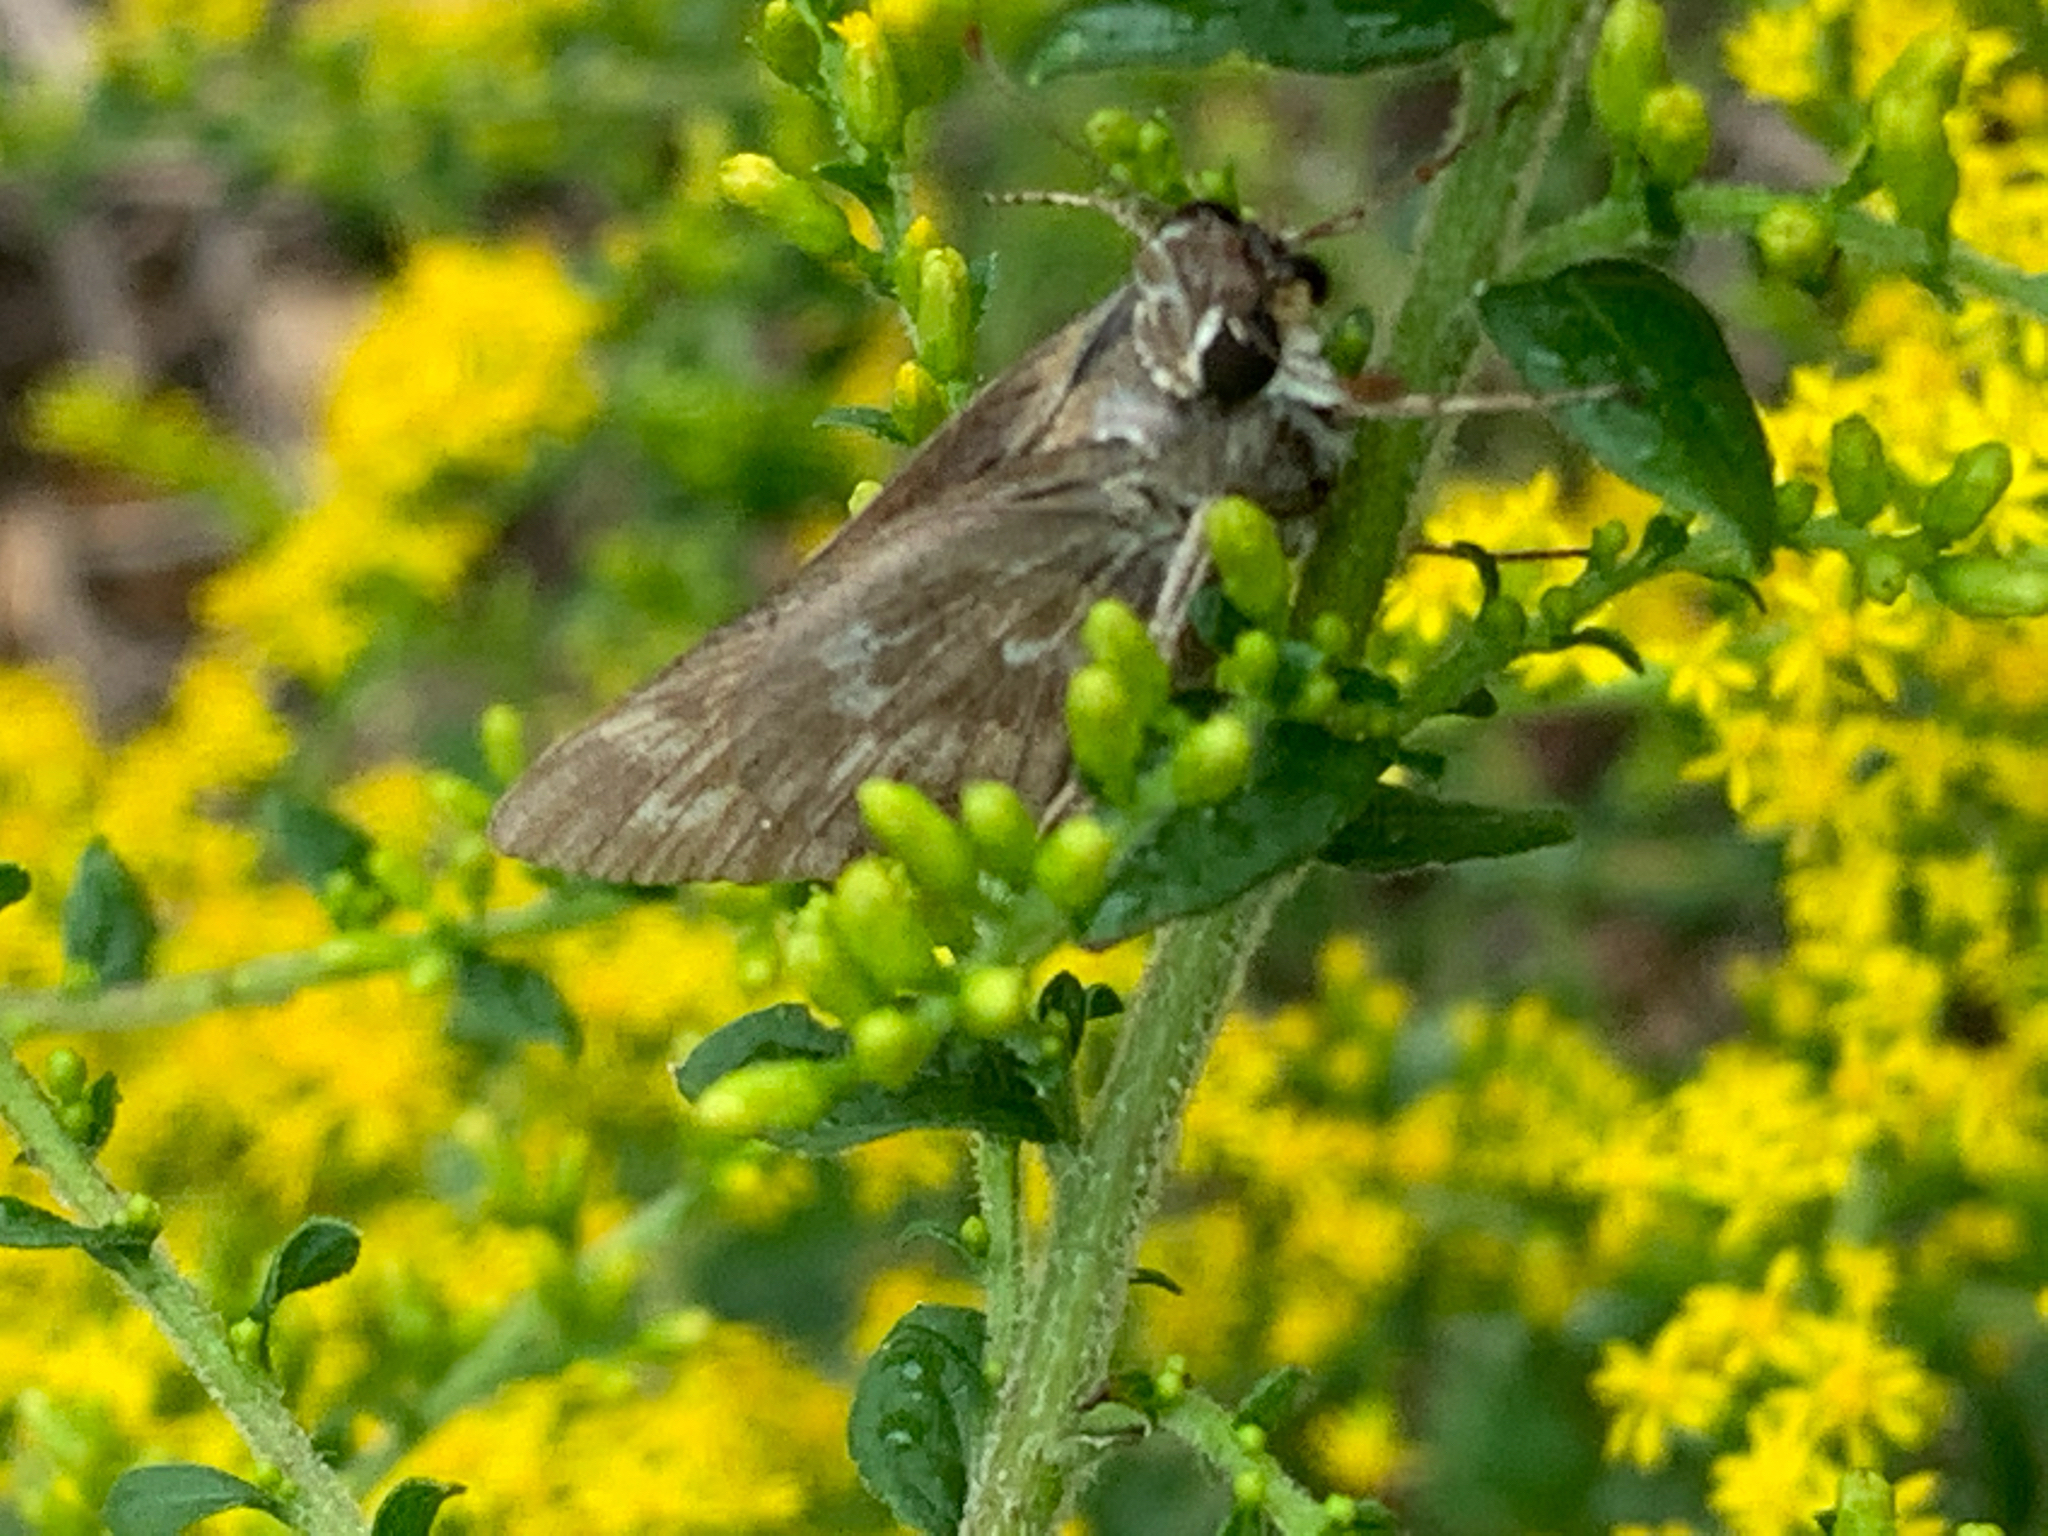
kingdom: Animalia
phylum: Arthropoda
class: Insecta
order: Lepidoptera
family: Hesperiidae
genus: Atalopedes
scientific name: Atalopedes
